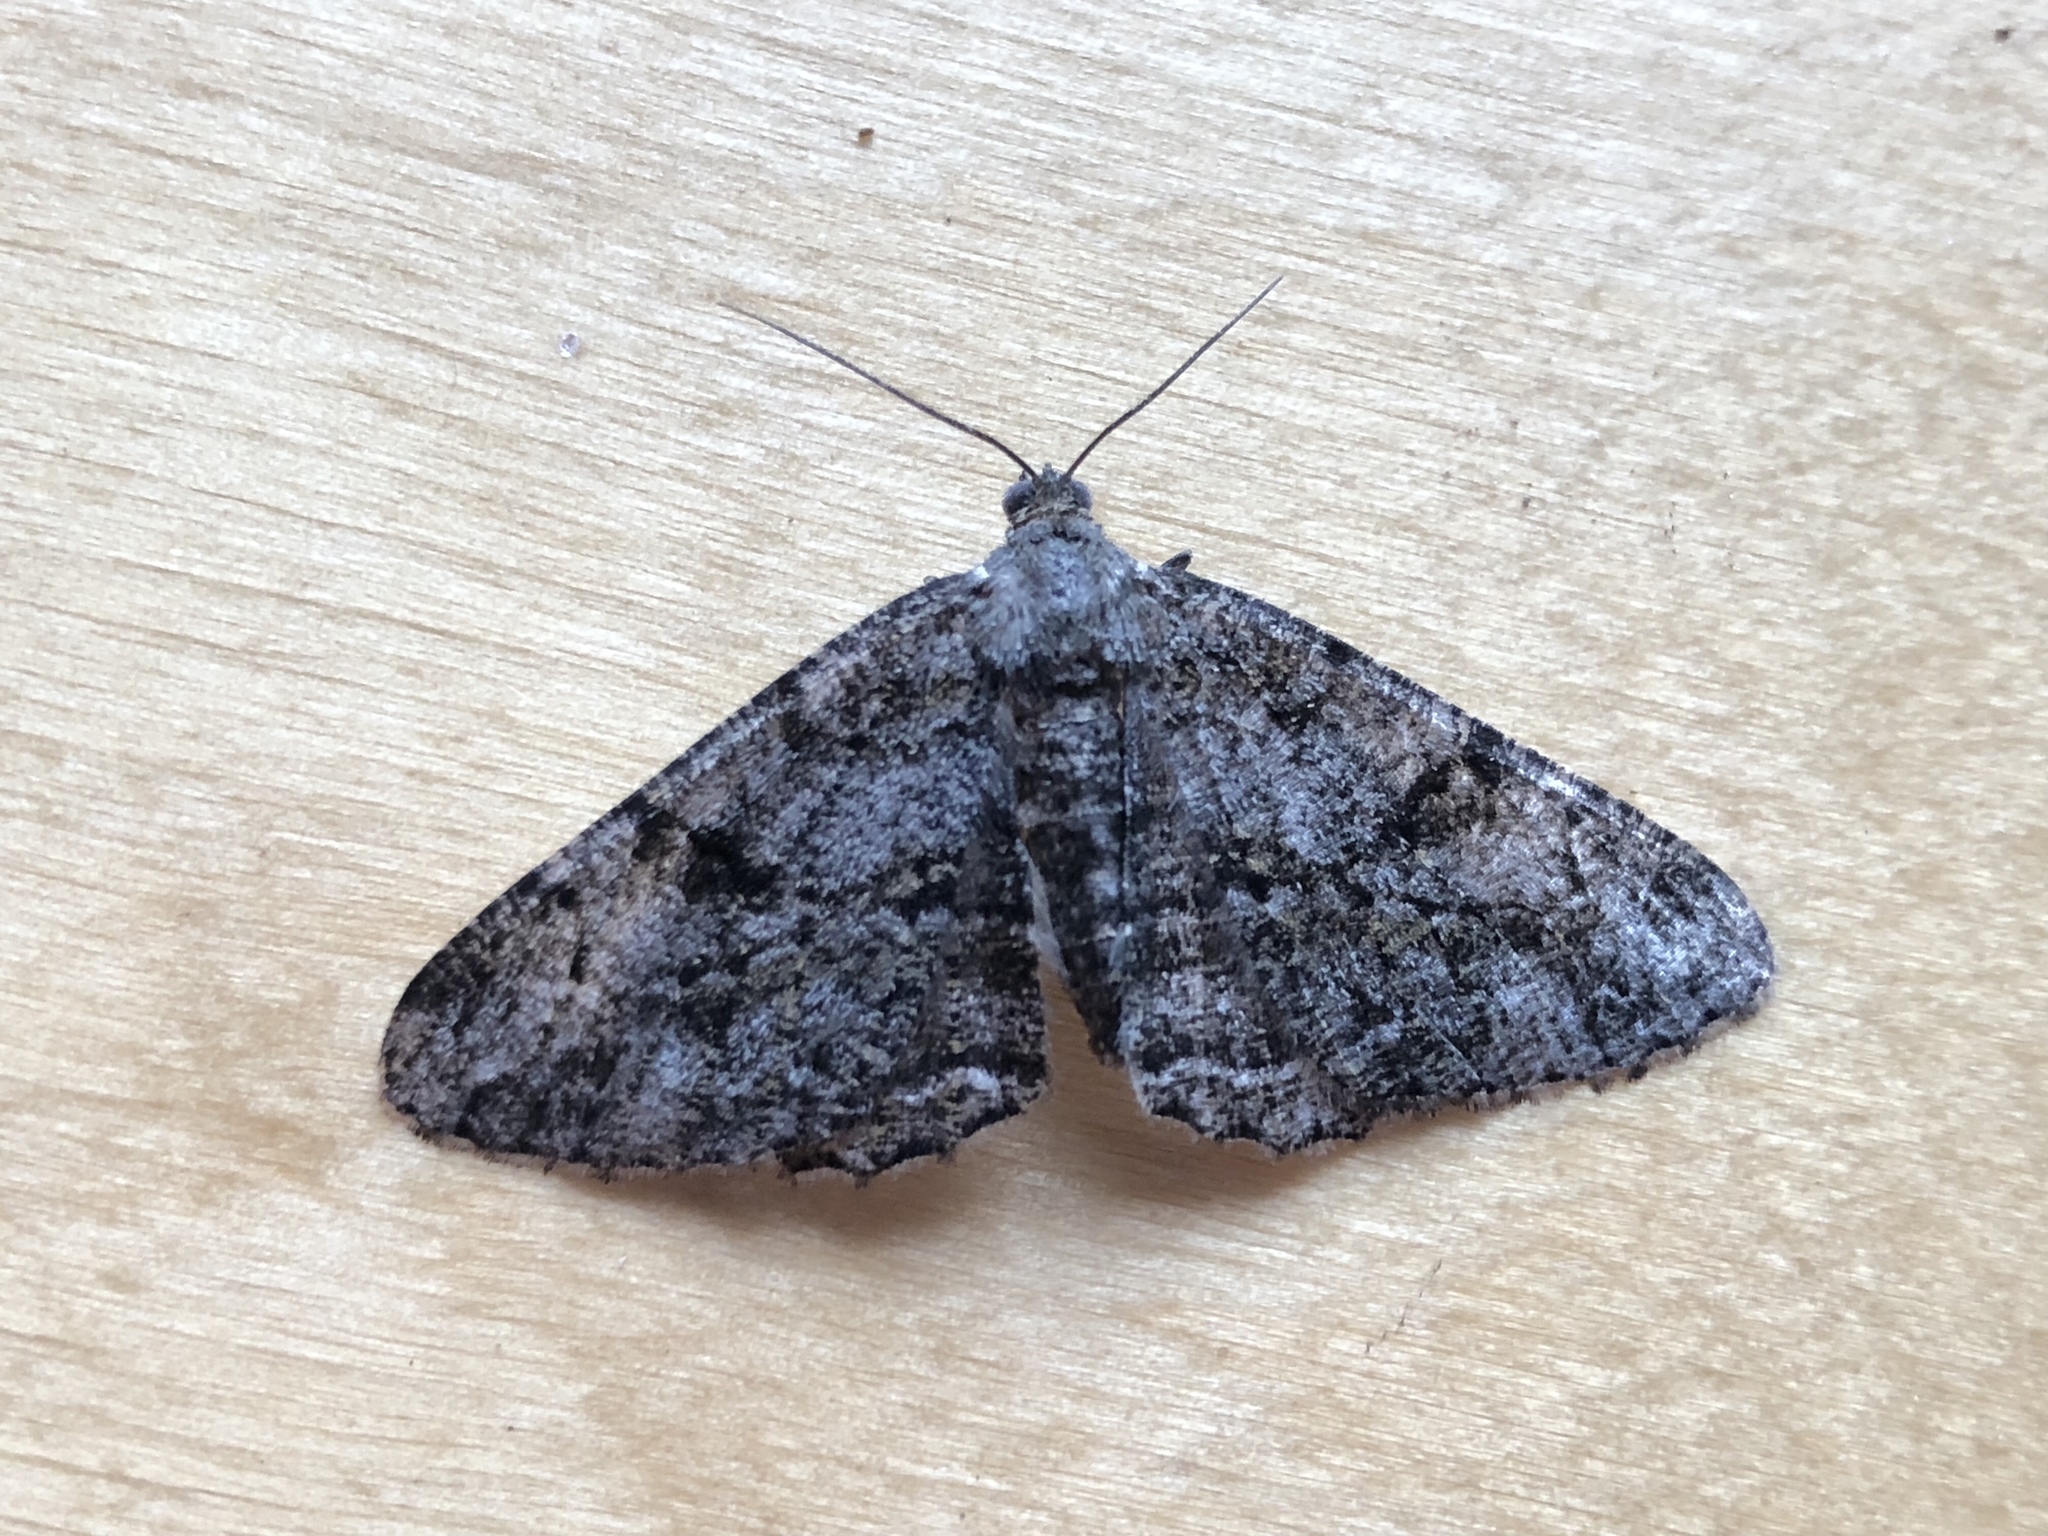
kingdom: Animalia
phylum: Arthropoda
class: Insecta
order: Lepidoptera
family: Geometridae
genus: Peribatodes
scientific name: Peribatodes rhomboidaria
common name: Willow beauty
